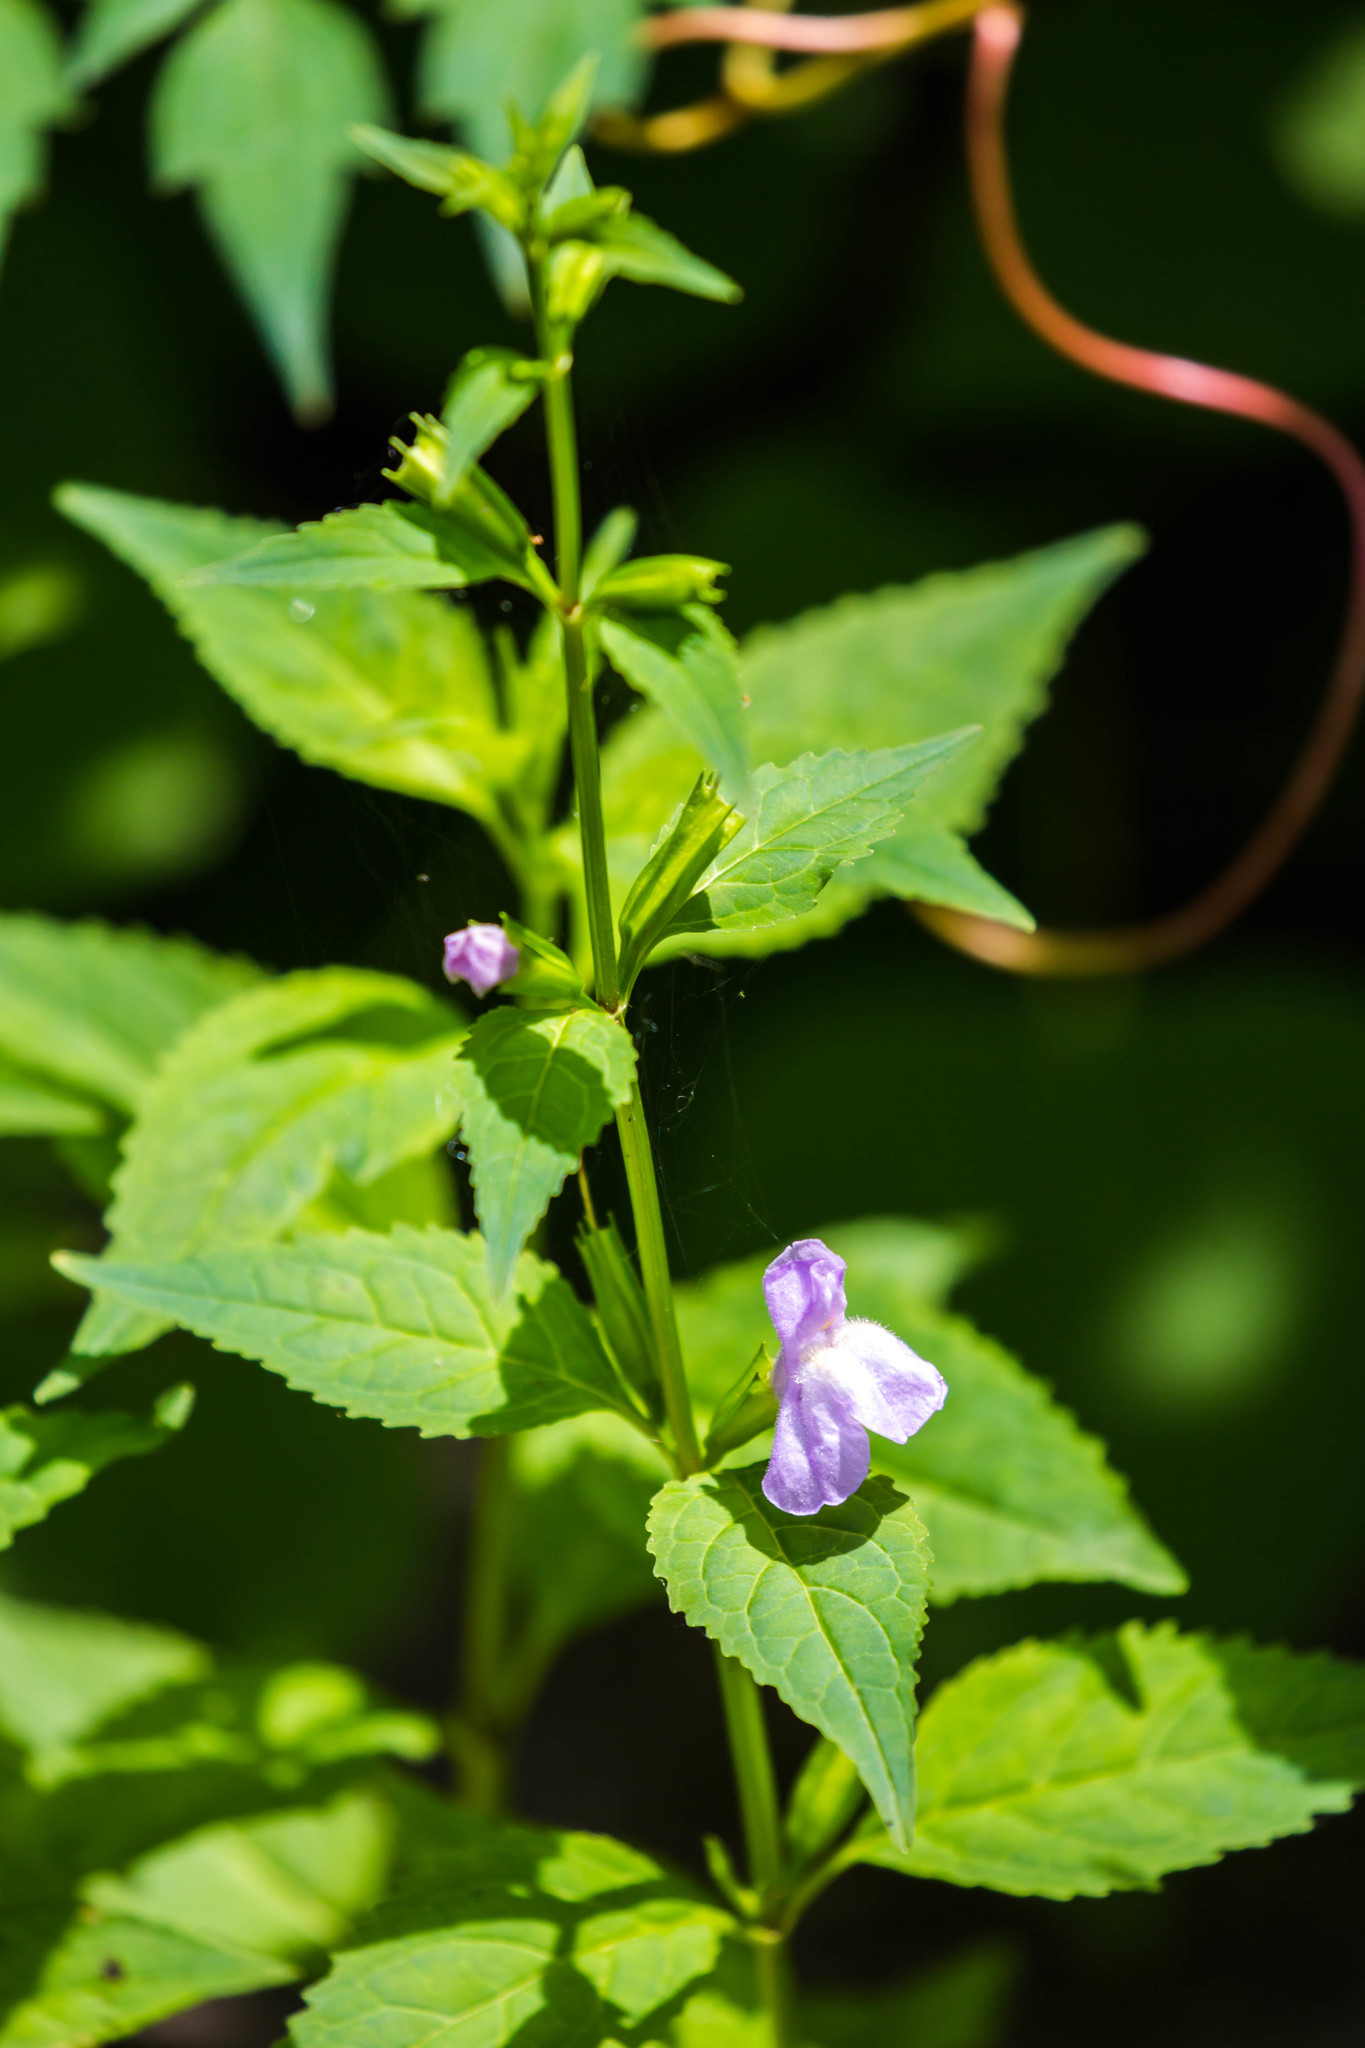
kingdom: Plantae
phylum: Tracheophyta
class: Magnoliopsida
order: Lamiales
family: Phrymaceae
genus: Mimulus
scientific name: Mimulus alatus
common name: Sharp-wing monkey-flower
